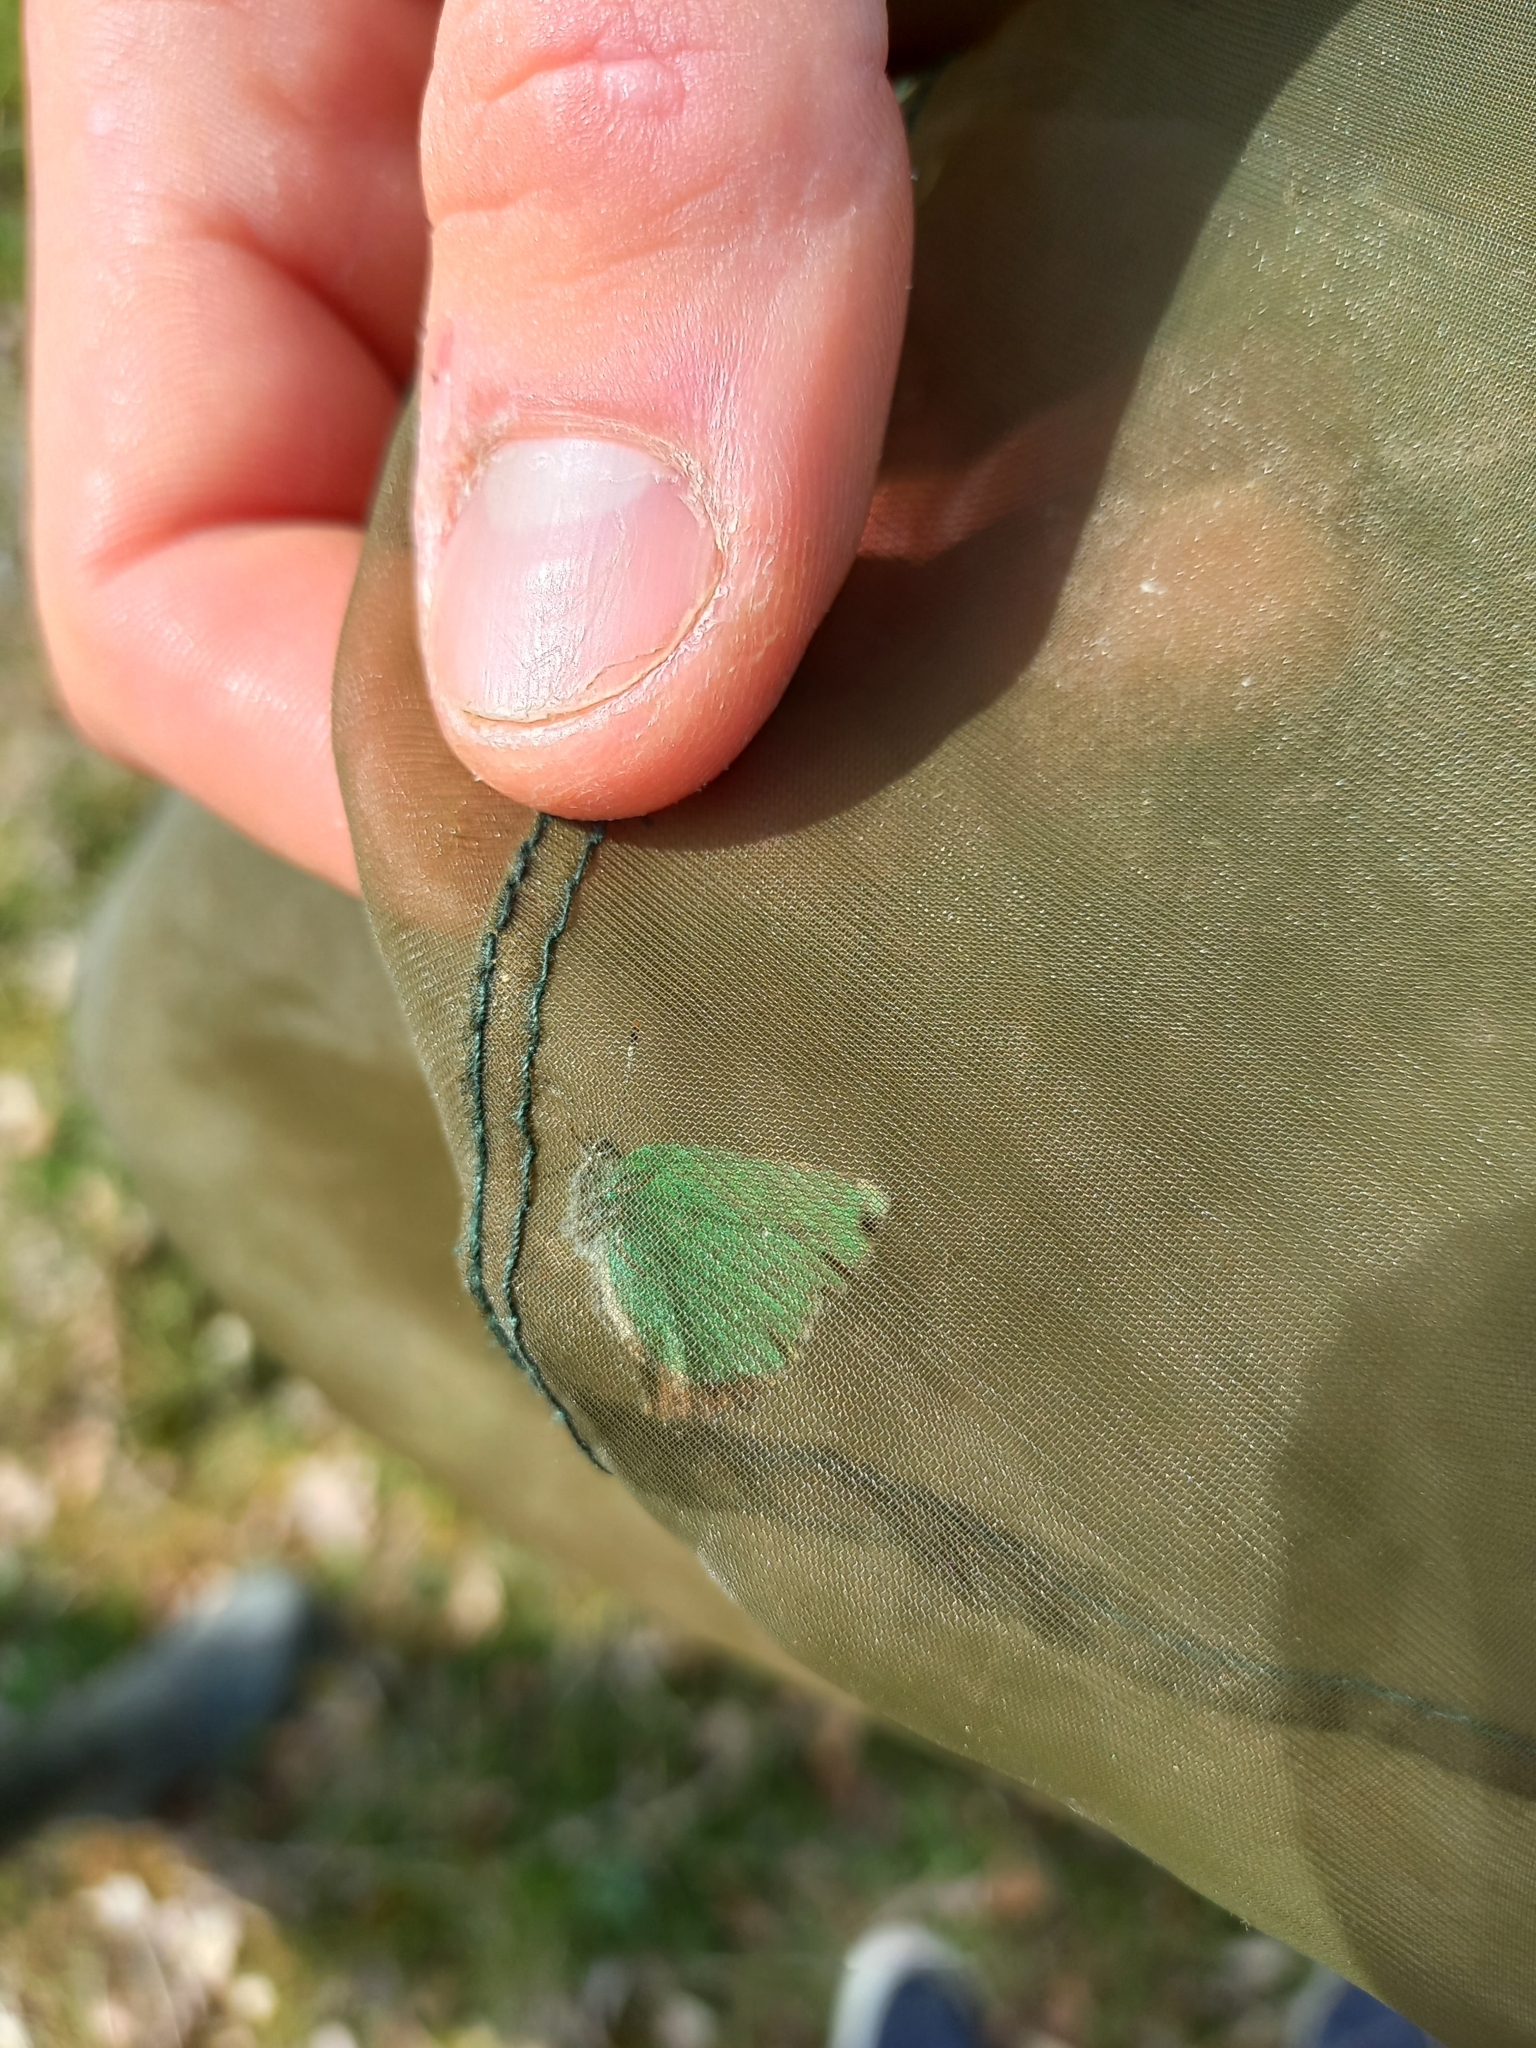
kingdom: Animalia
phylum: Arthropoda
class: Insecta
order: Lepidoptera
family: Lycaenidae
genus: Callophrys
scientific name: Callophrys rubi
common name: Green hairstreak
